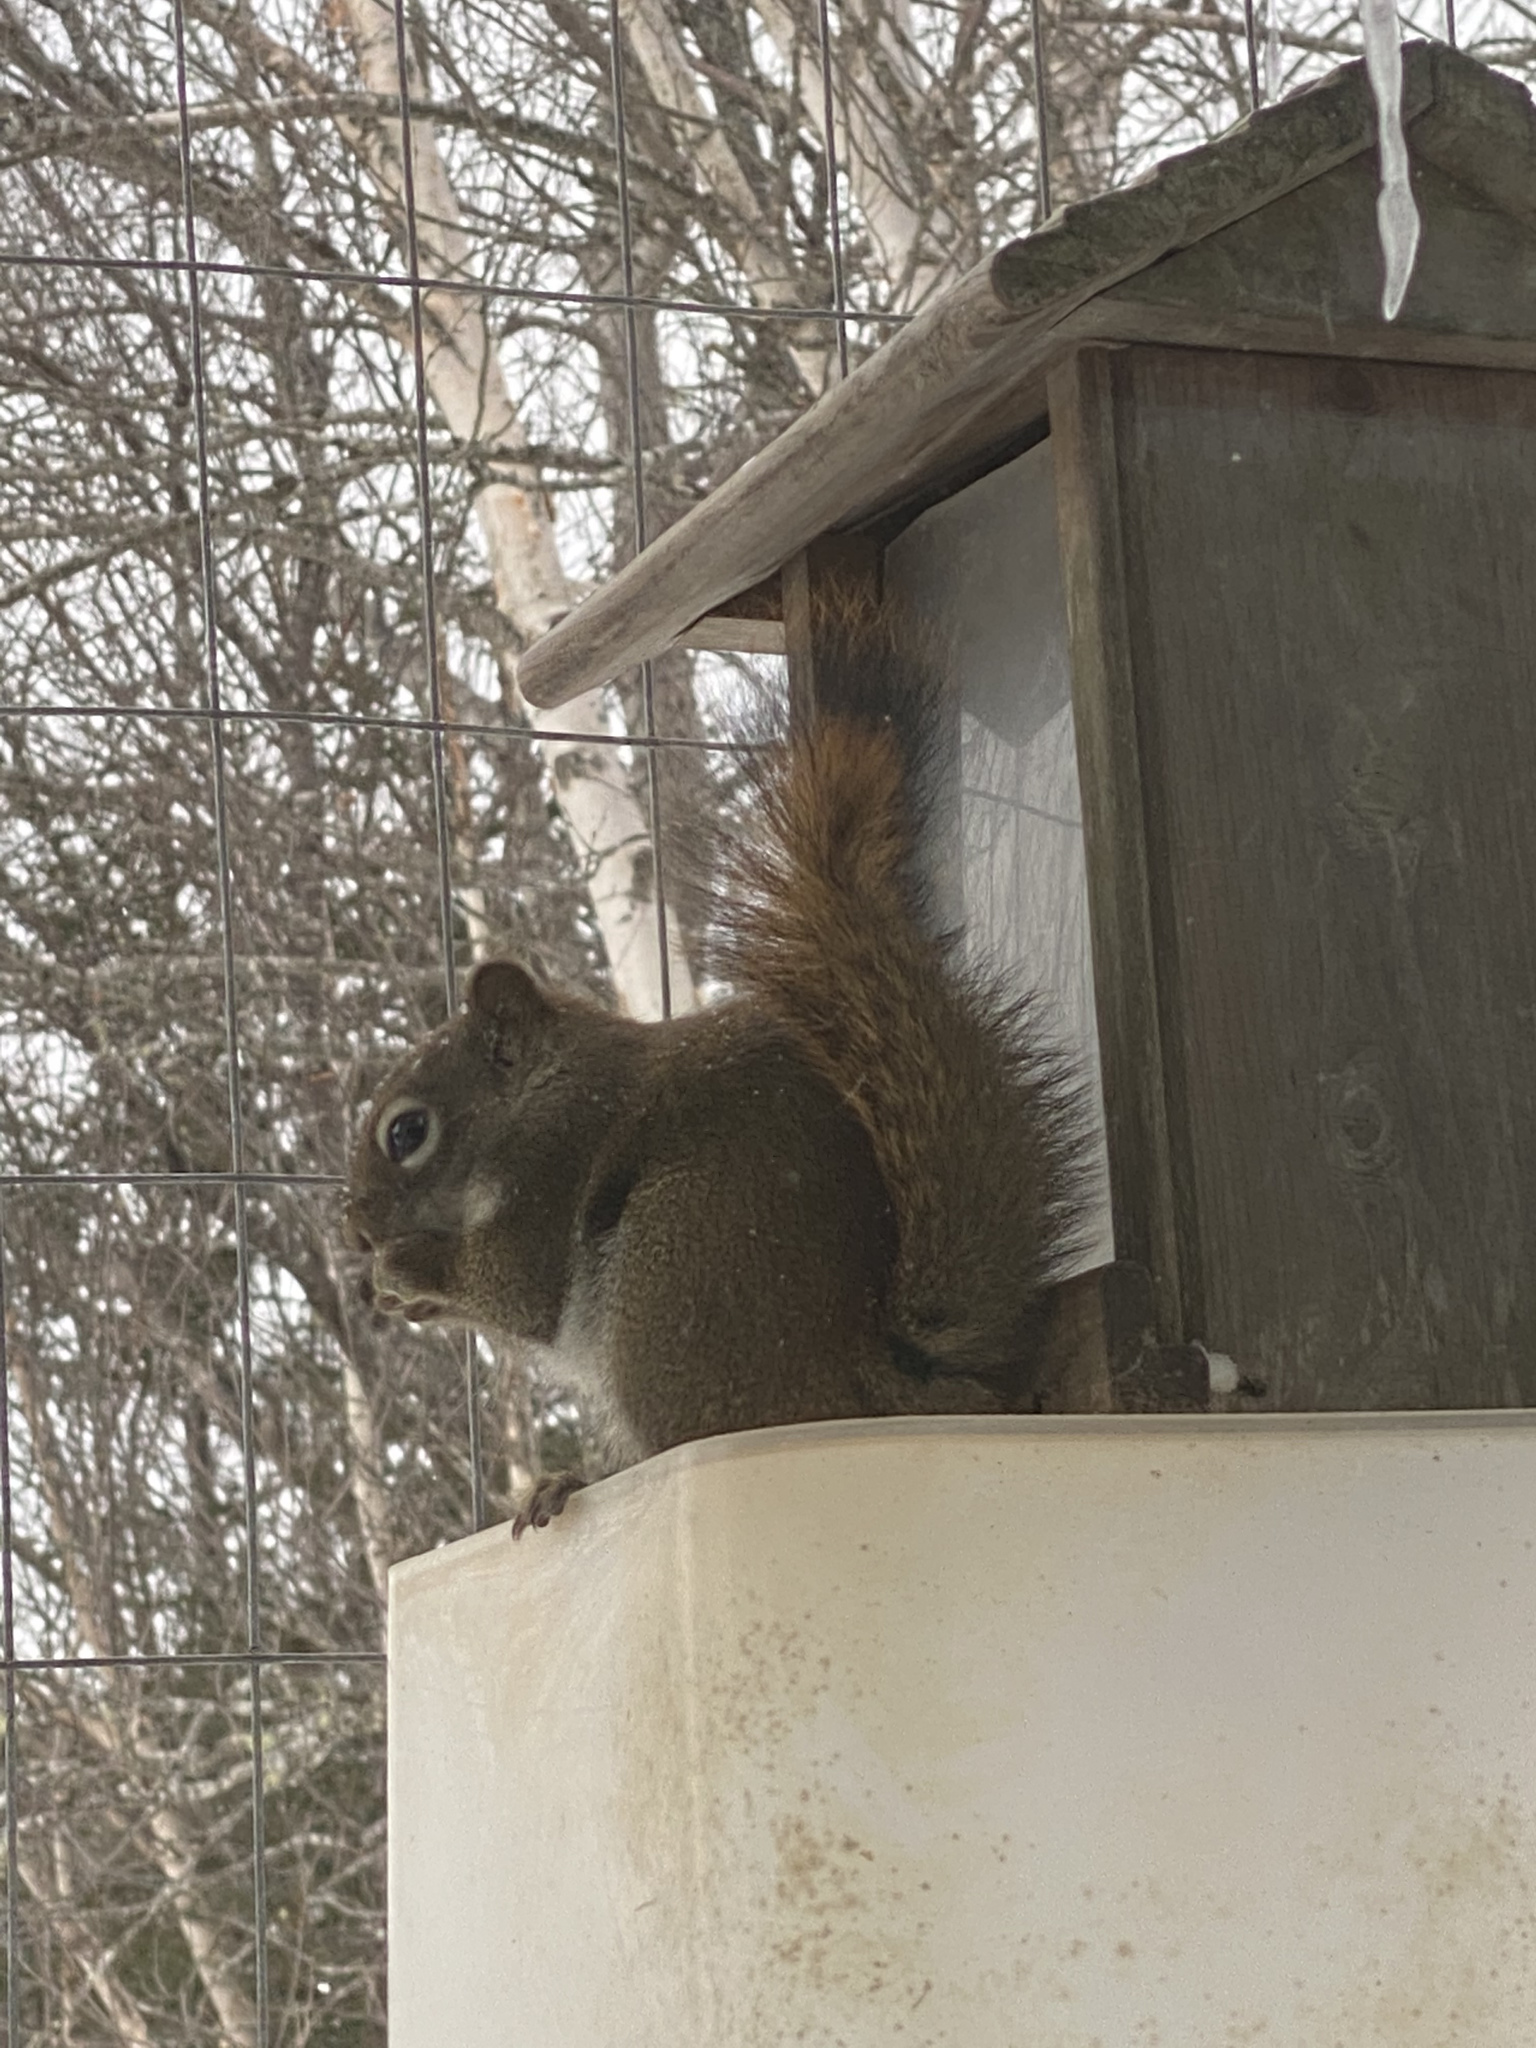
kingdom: Animalia
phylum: Chordata
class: Mammalia
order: Rodentia
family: Sciuridae
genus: Tamiasciurus
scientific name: Tamiasciurus hudsonicus
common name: Red squirrel
